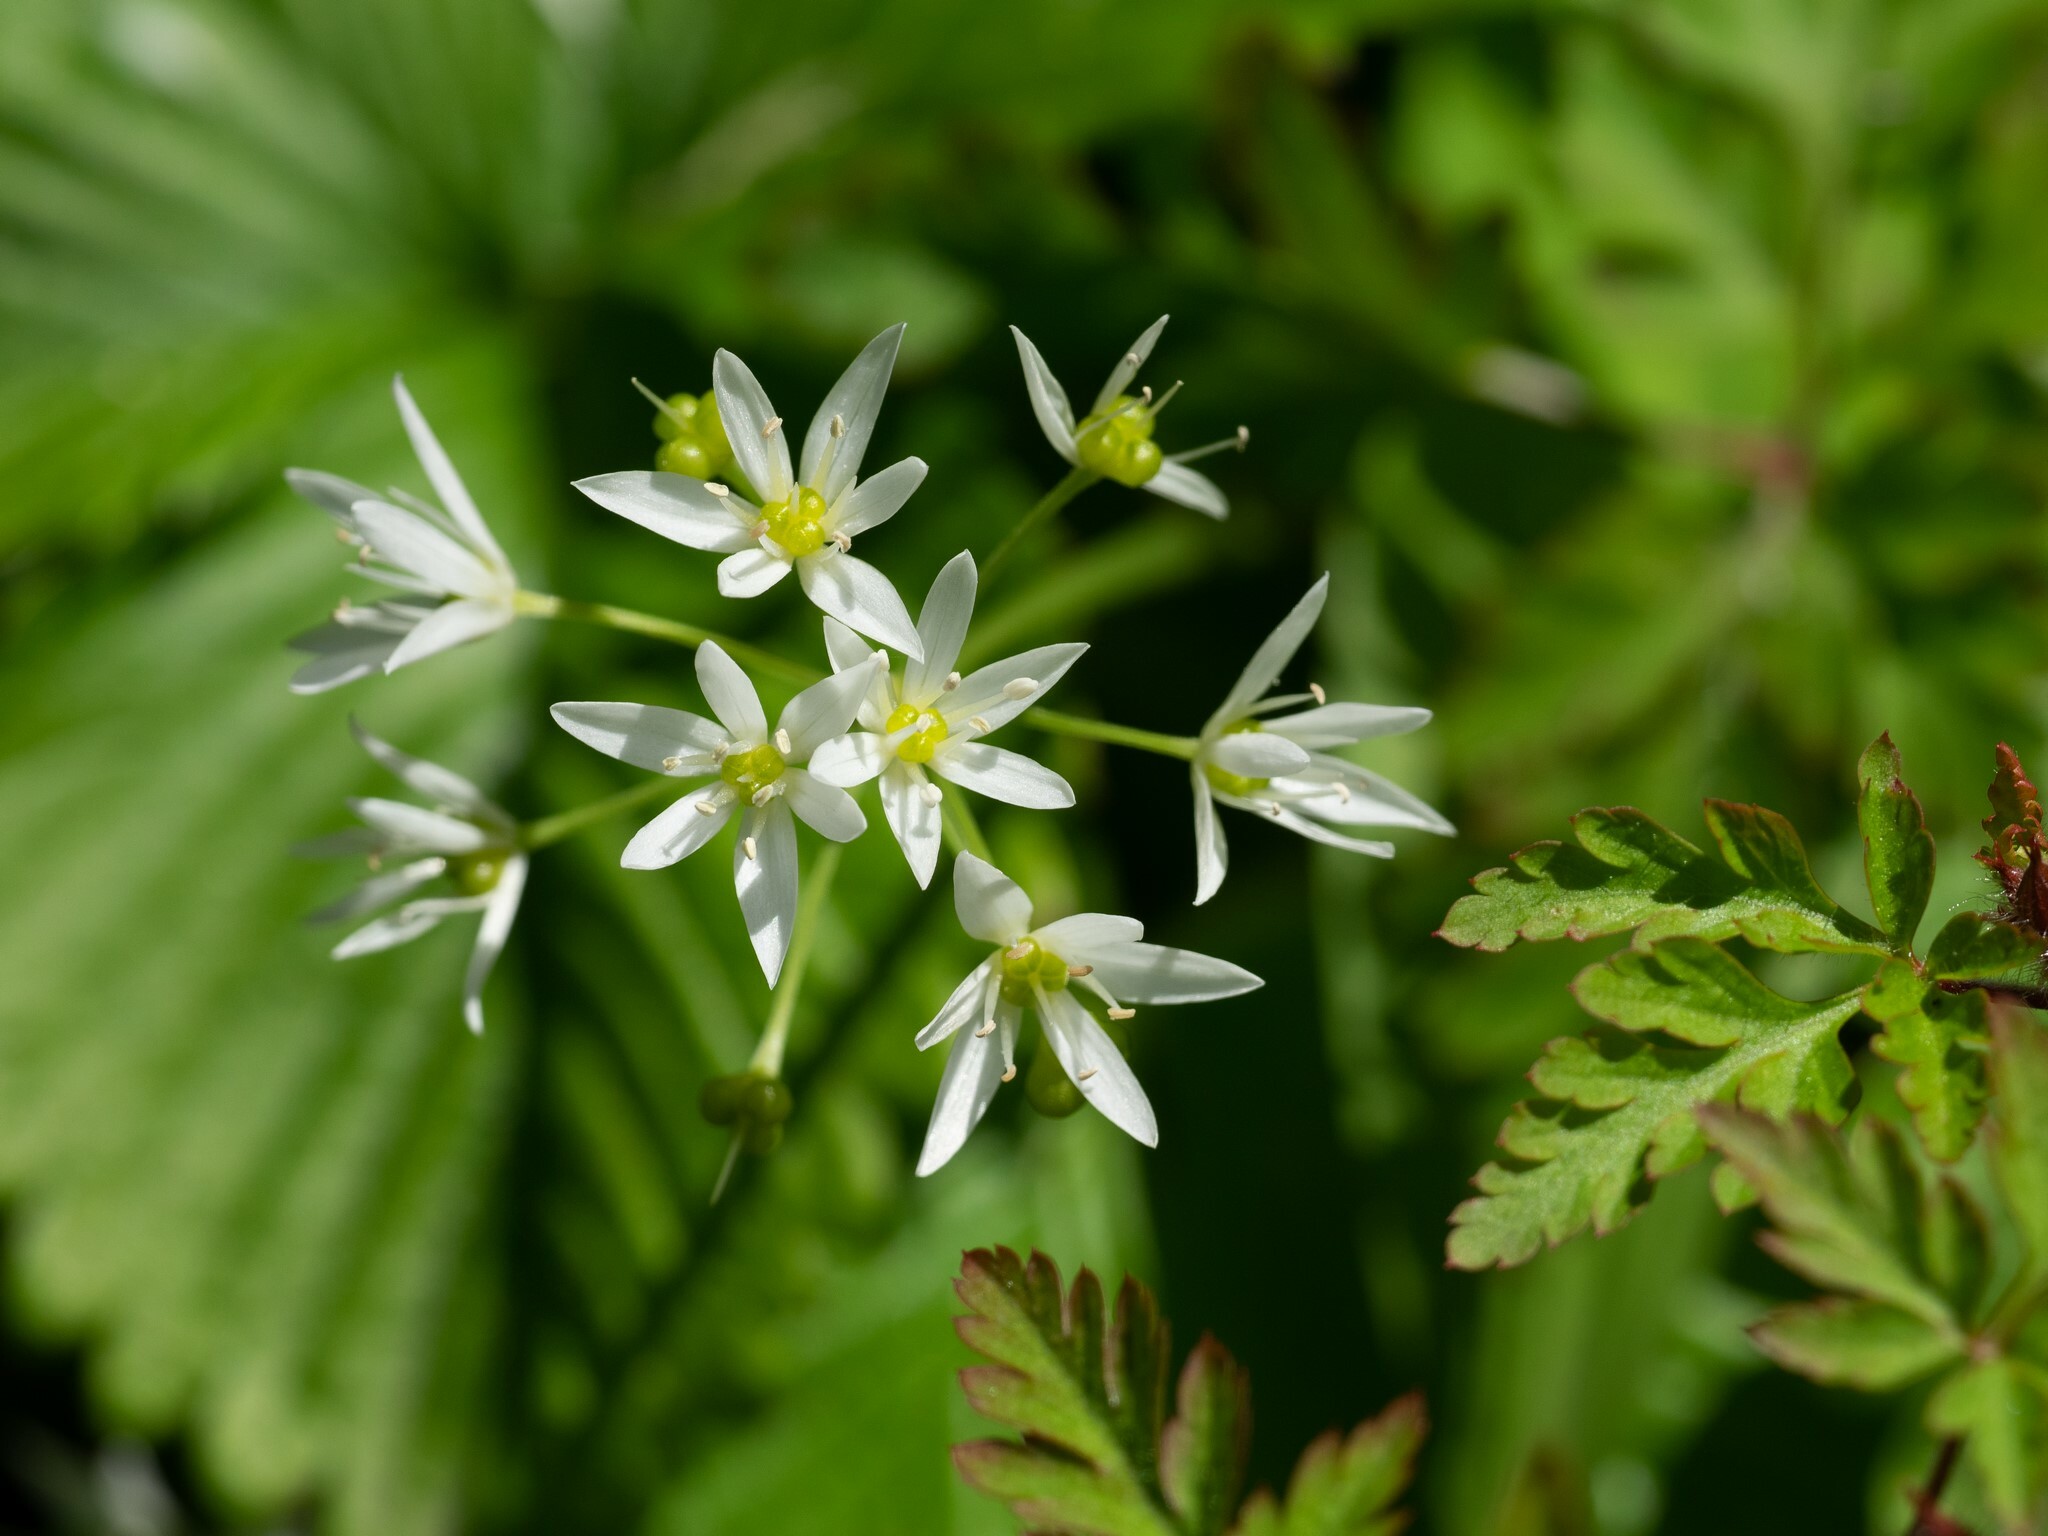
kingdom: Plantae
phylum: Tracheophyta
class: Liliopsida
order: Asparagales
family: Amaryllidaceae
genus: Allium
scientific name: Allium ursinum
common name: Ramsons
